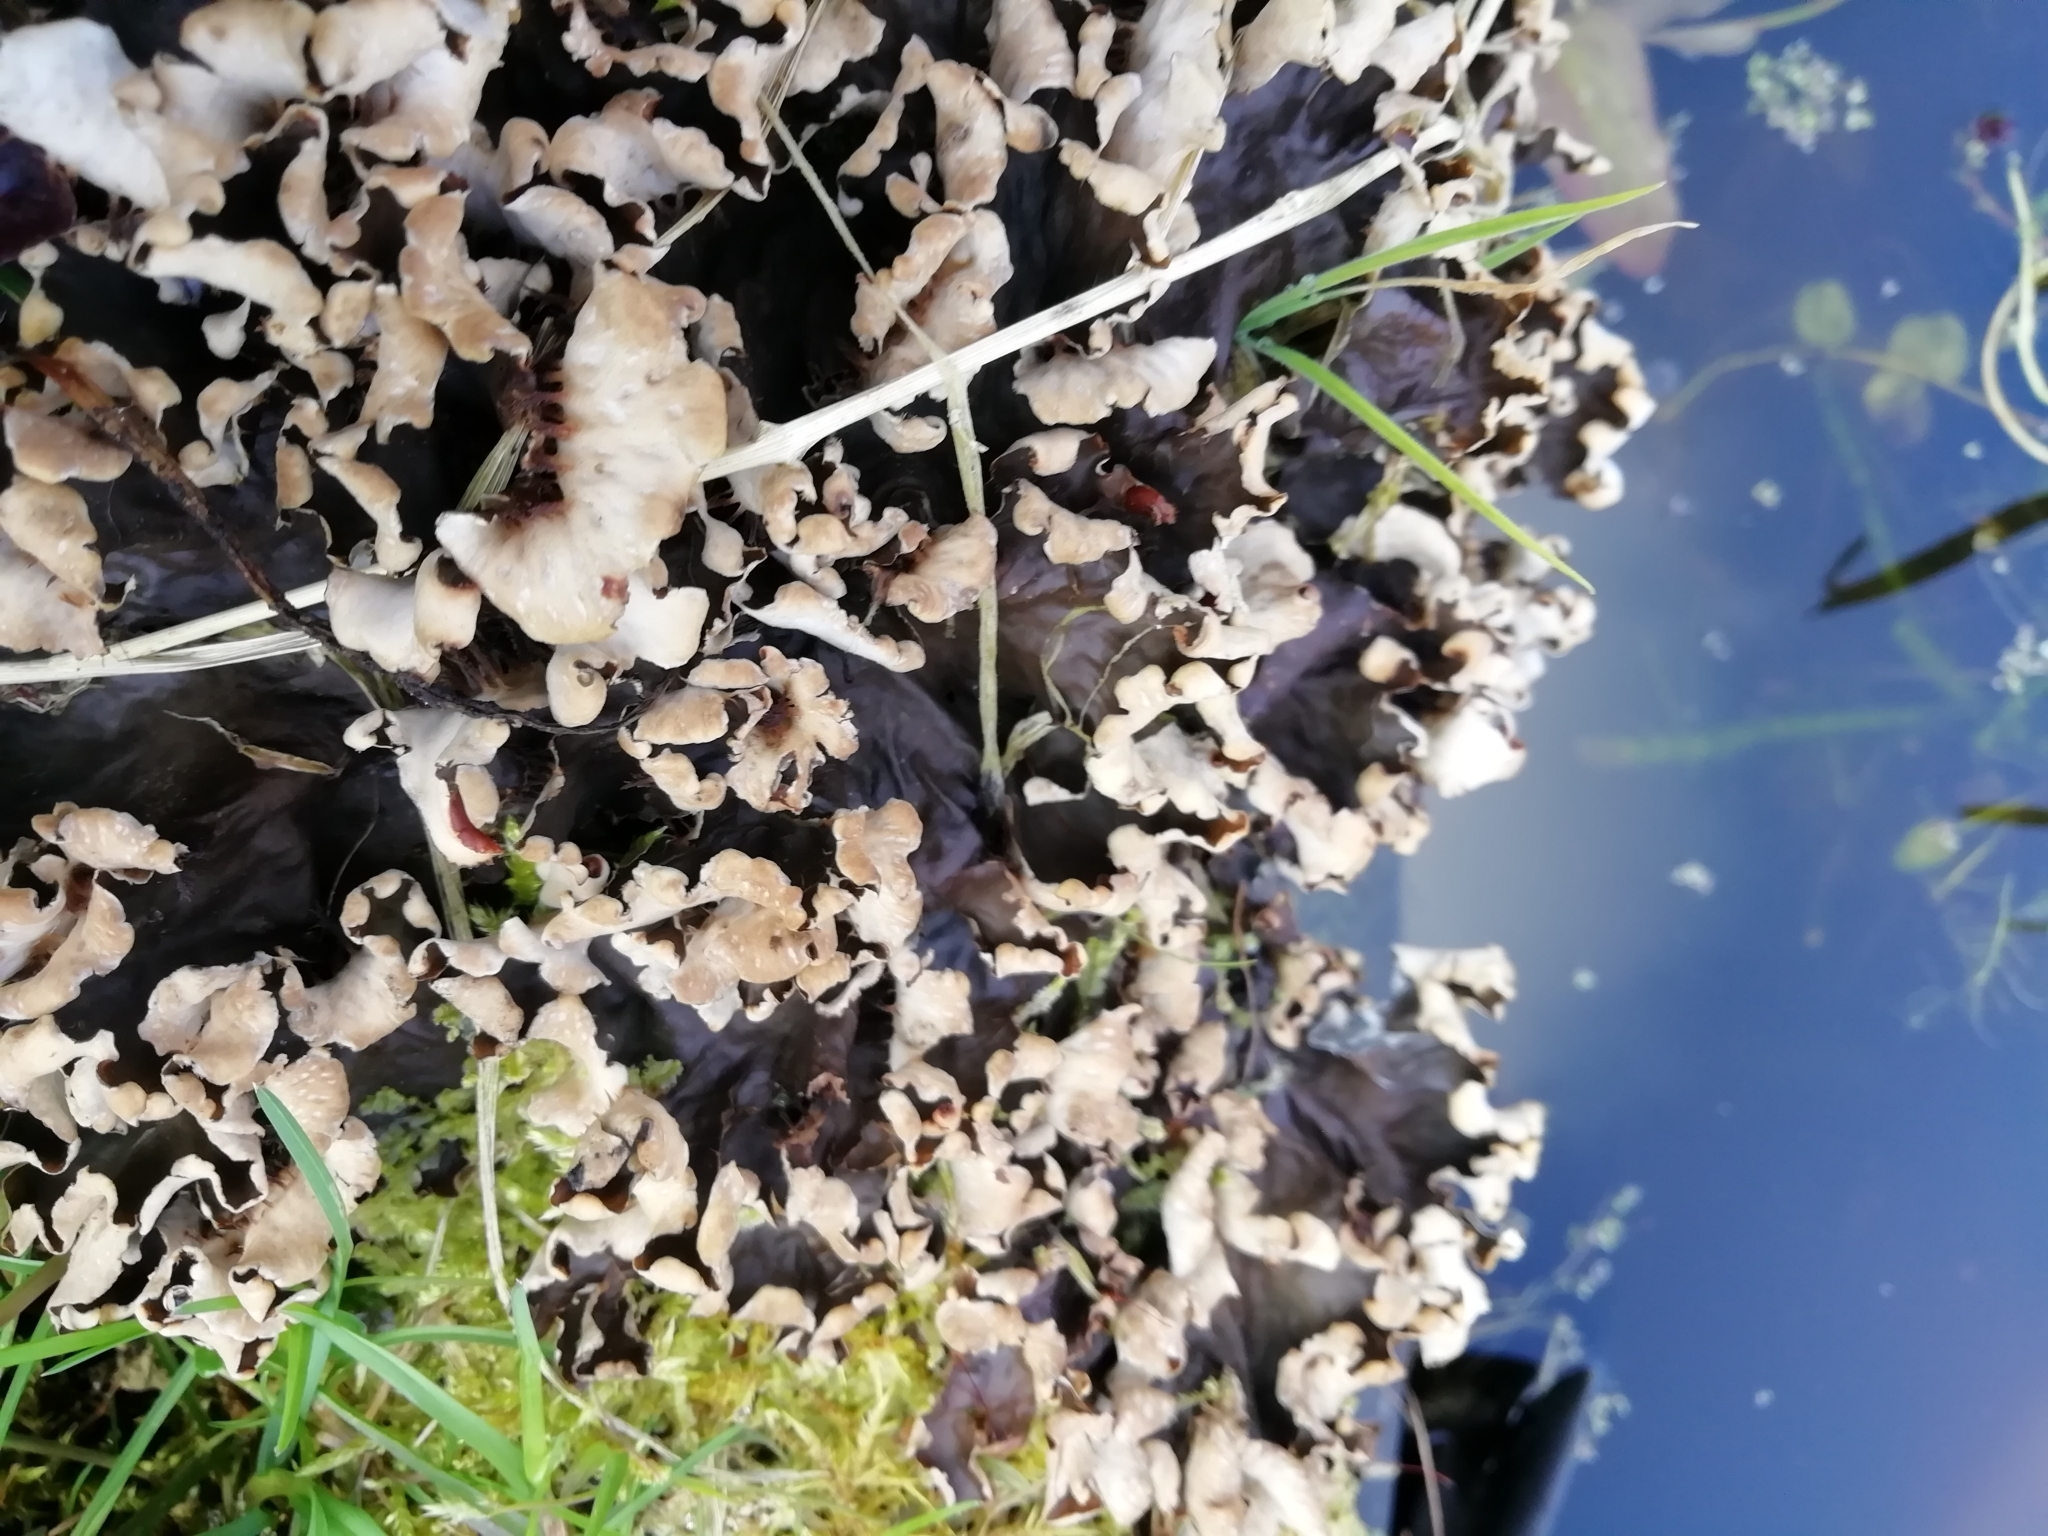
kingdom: Fungi
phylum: Ascomycota
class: Lecanoromycetes
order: Peltigerales
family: Peltigeraceae
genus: Peltigera
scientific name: Peltigera canina
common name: Dog pelt lichen
